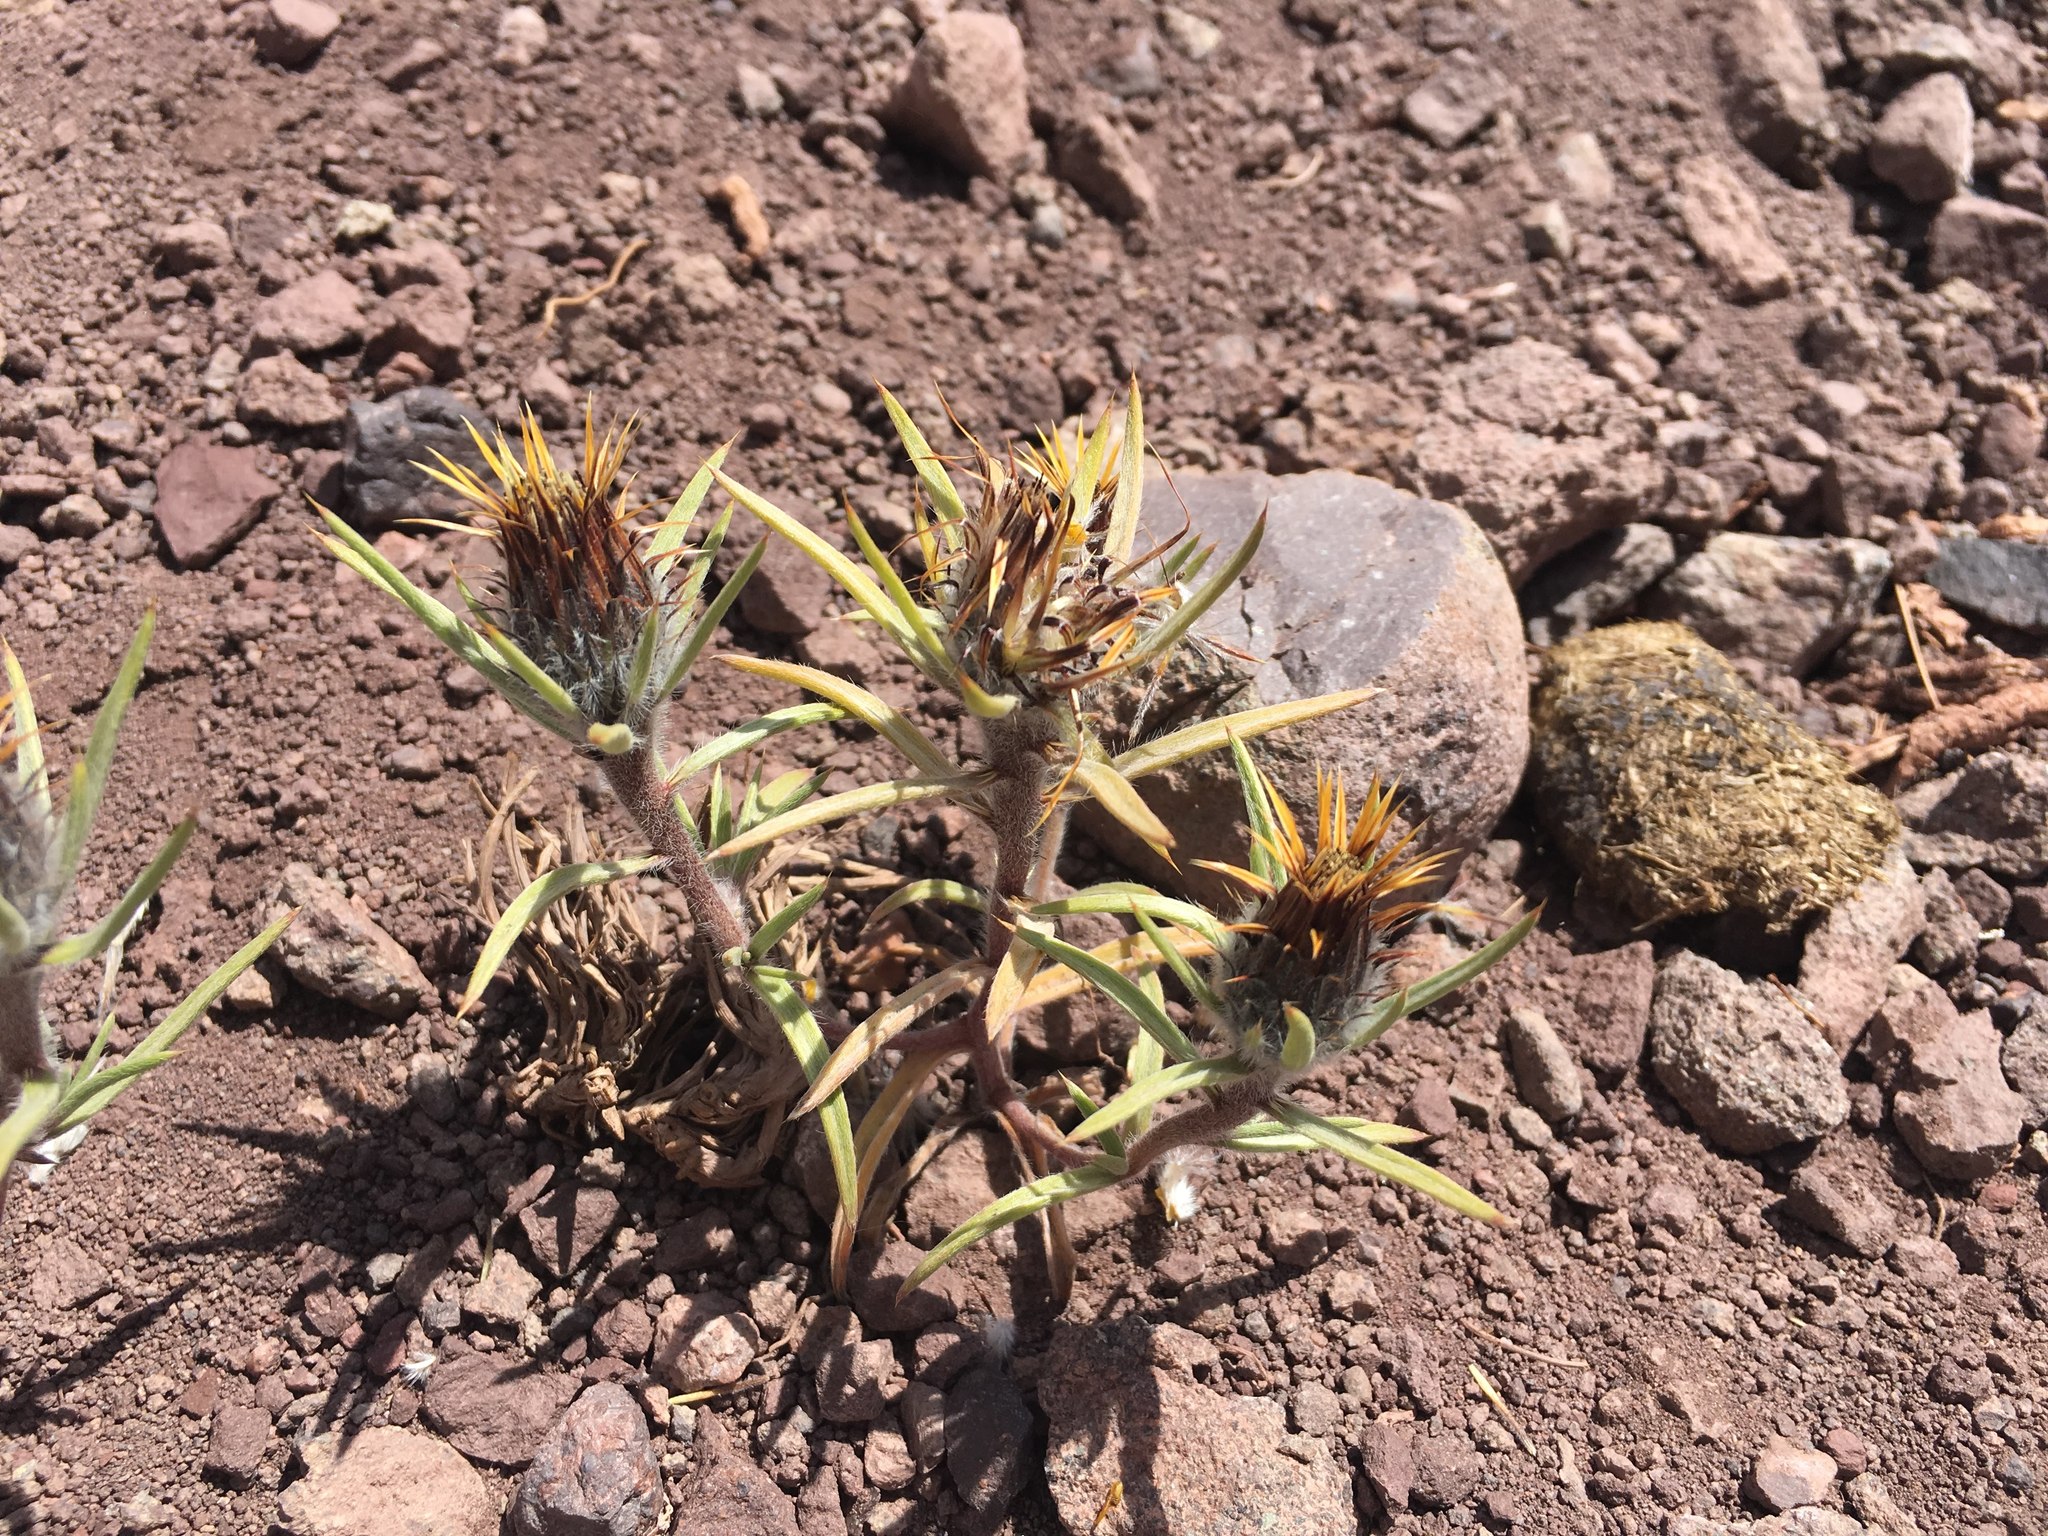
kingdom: Plantae
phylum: Tracheophyta
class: Magnoliopsida
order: Asterales
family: Asteraceae
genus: Doniophyton
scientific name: Doniophyton weddellii
